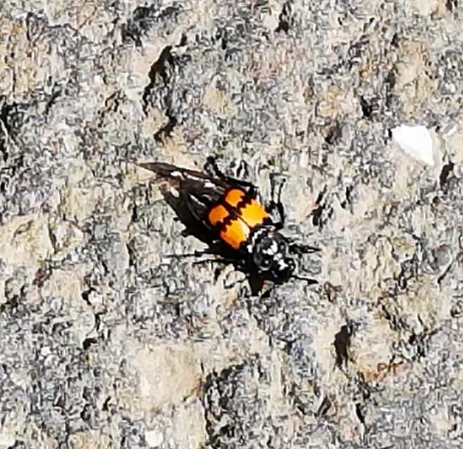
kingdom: Animalia
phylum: Arthropoda
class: Insecta
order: Coleoptera
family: Staphylinidae
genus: Nicrophorus
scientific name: Nicrophorus vespilloides
